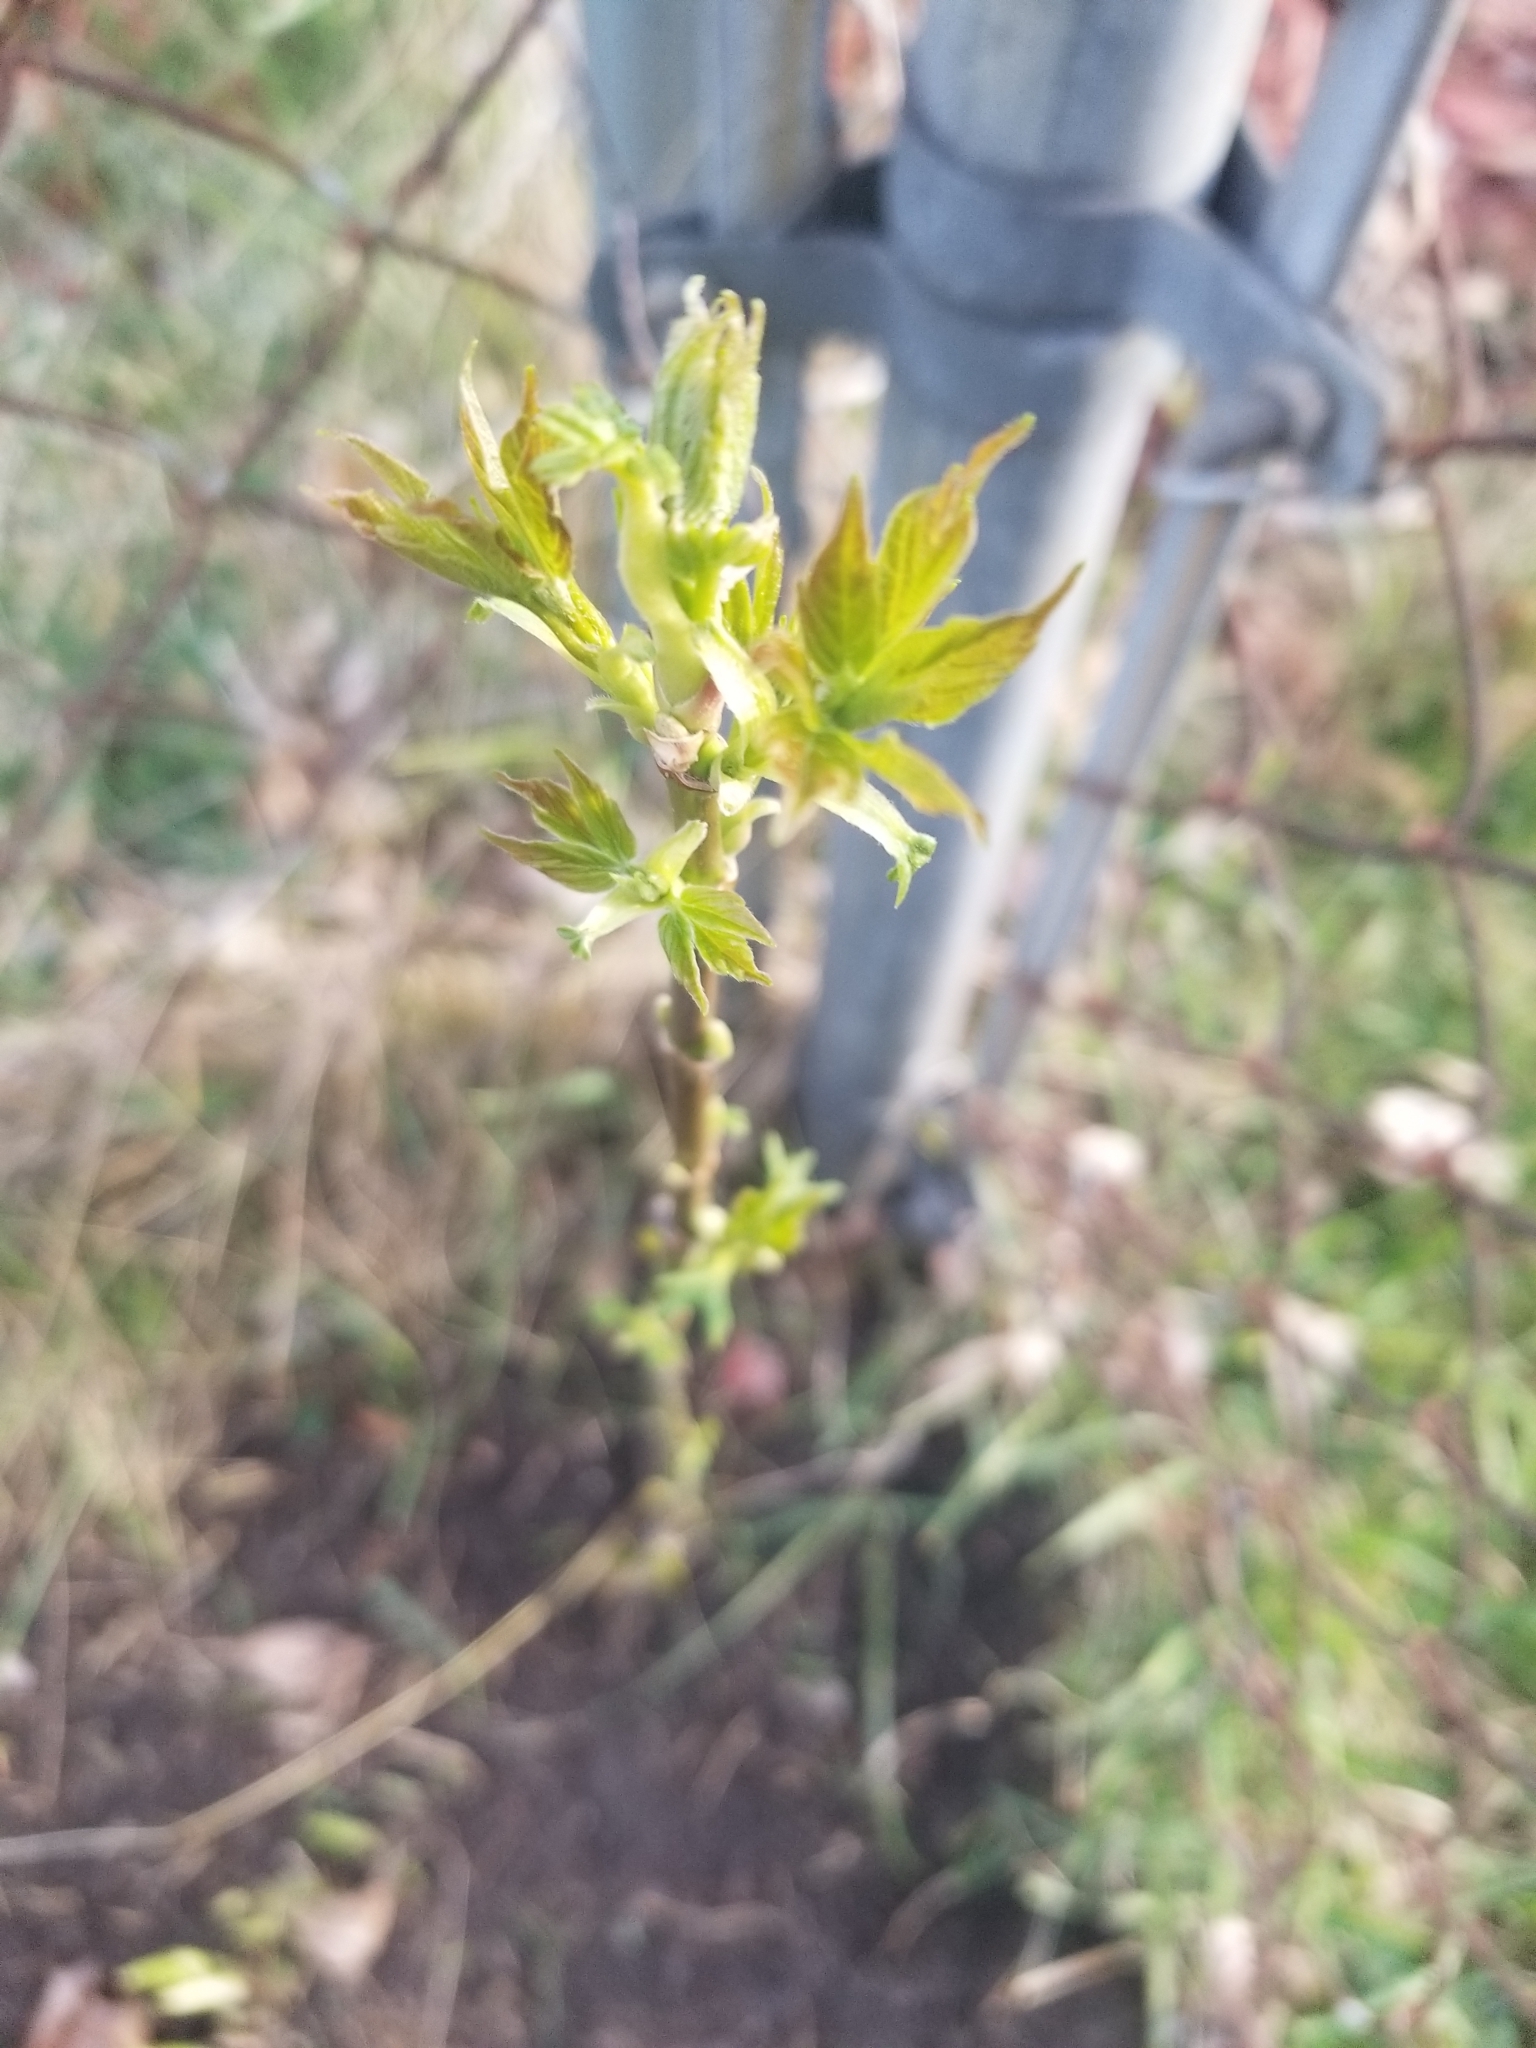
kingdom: Plantae
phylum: Tracheophyta
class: Magnoliopsida
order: Sapindales
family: Sapindaceae
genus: Acer
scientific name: Acer negundo
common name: Ashleaf maple
